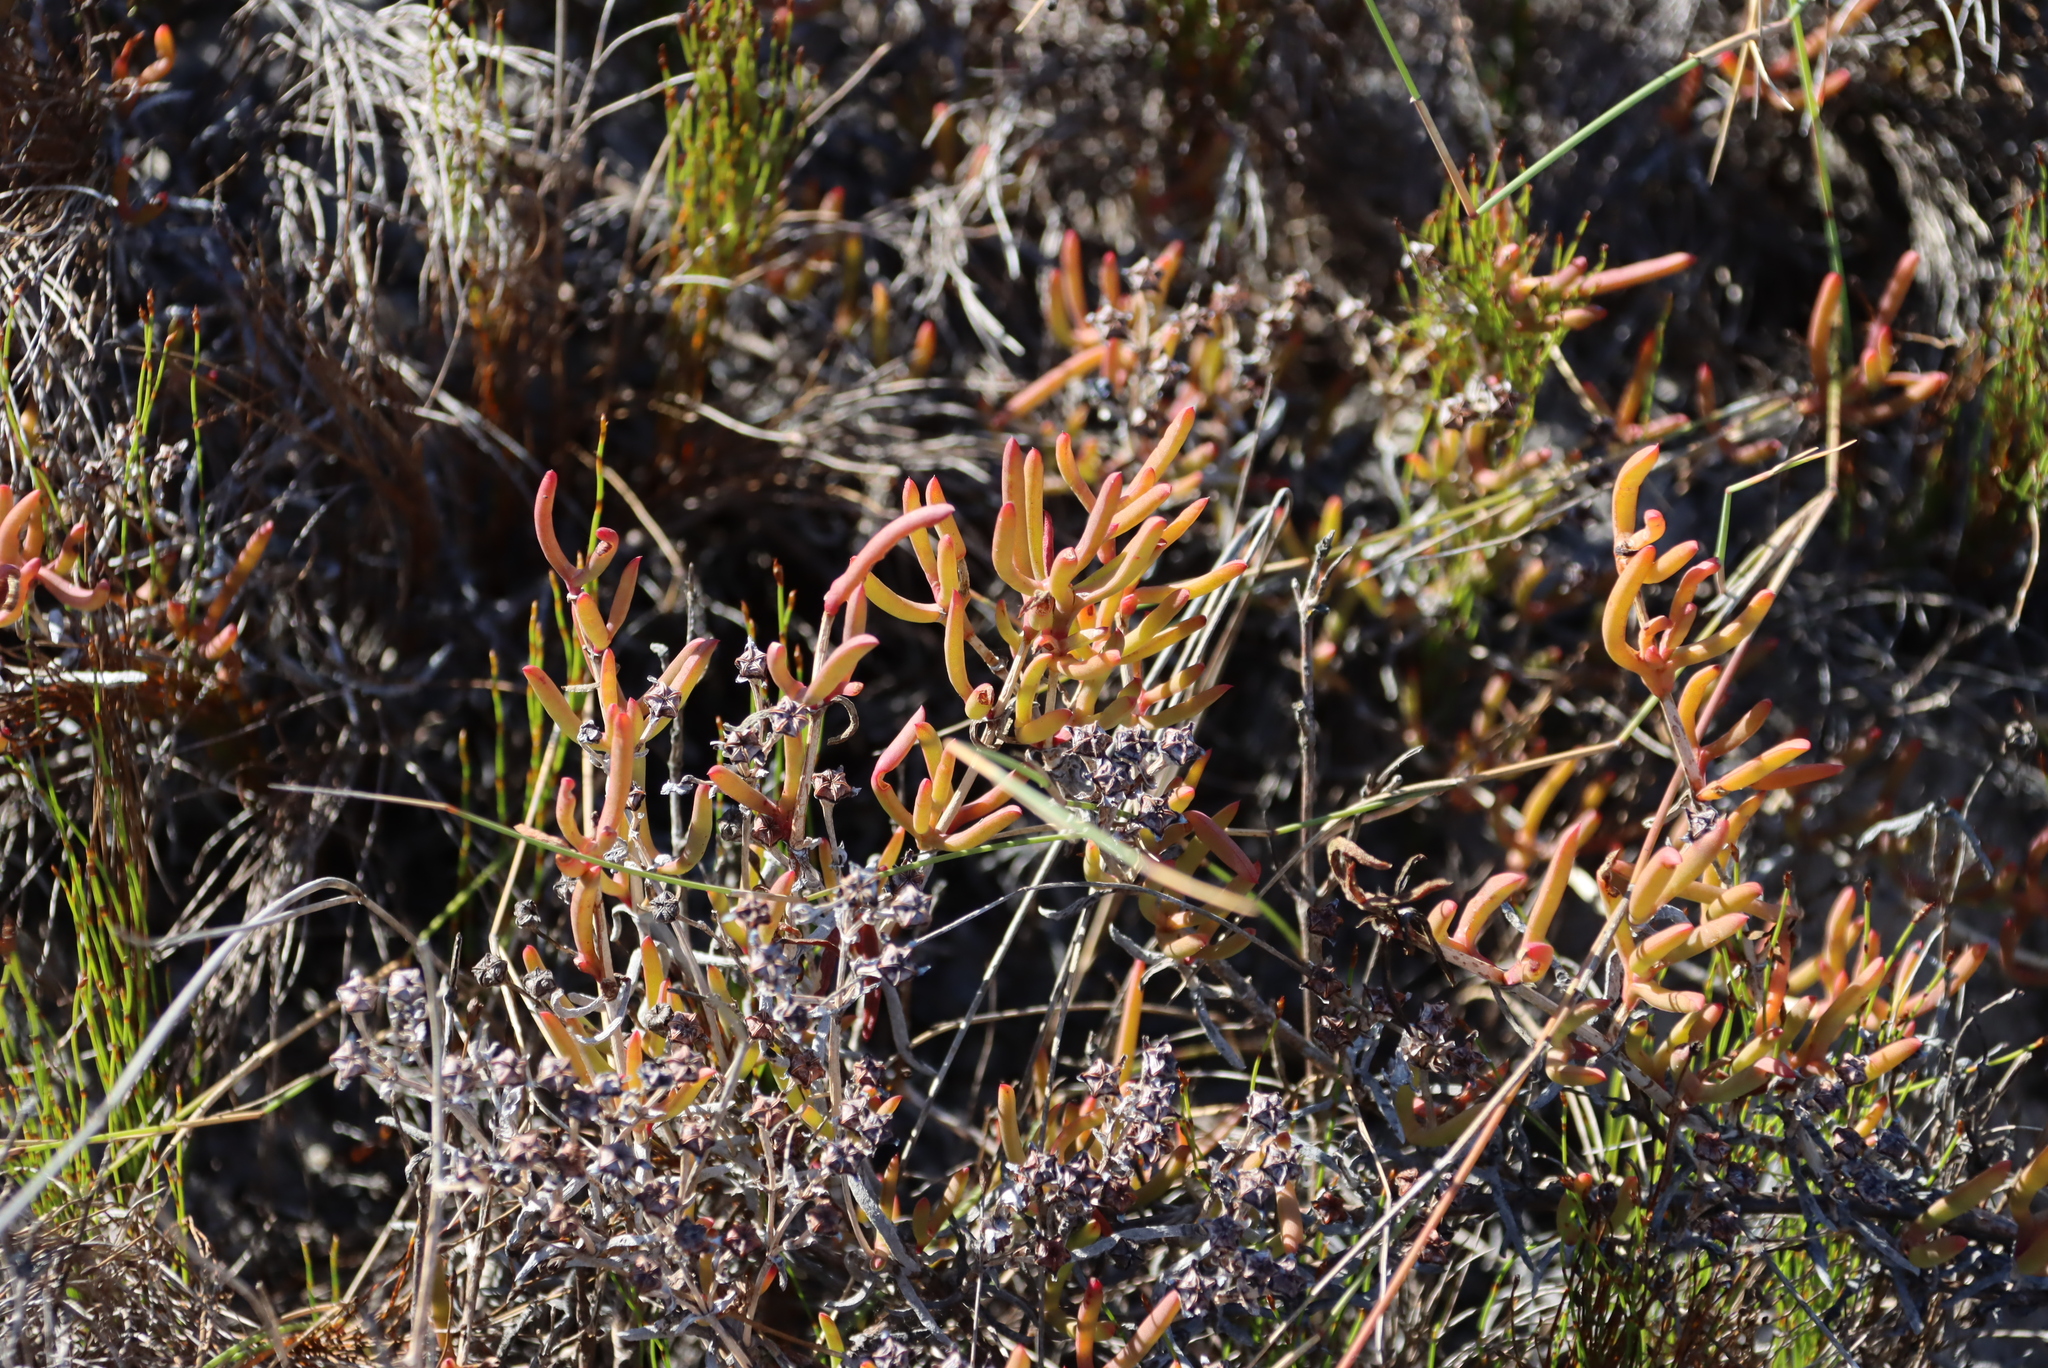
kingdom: Plantae
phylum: Tracheophyta
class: Magnoliopsida
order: Caryophyllales
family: Aizoaceae
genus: Ruschia
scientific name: Ruschia macowanii
